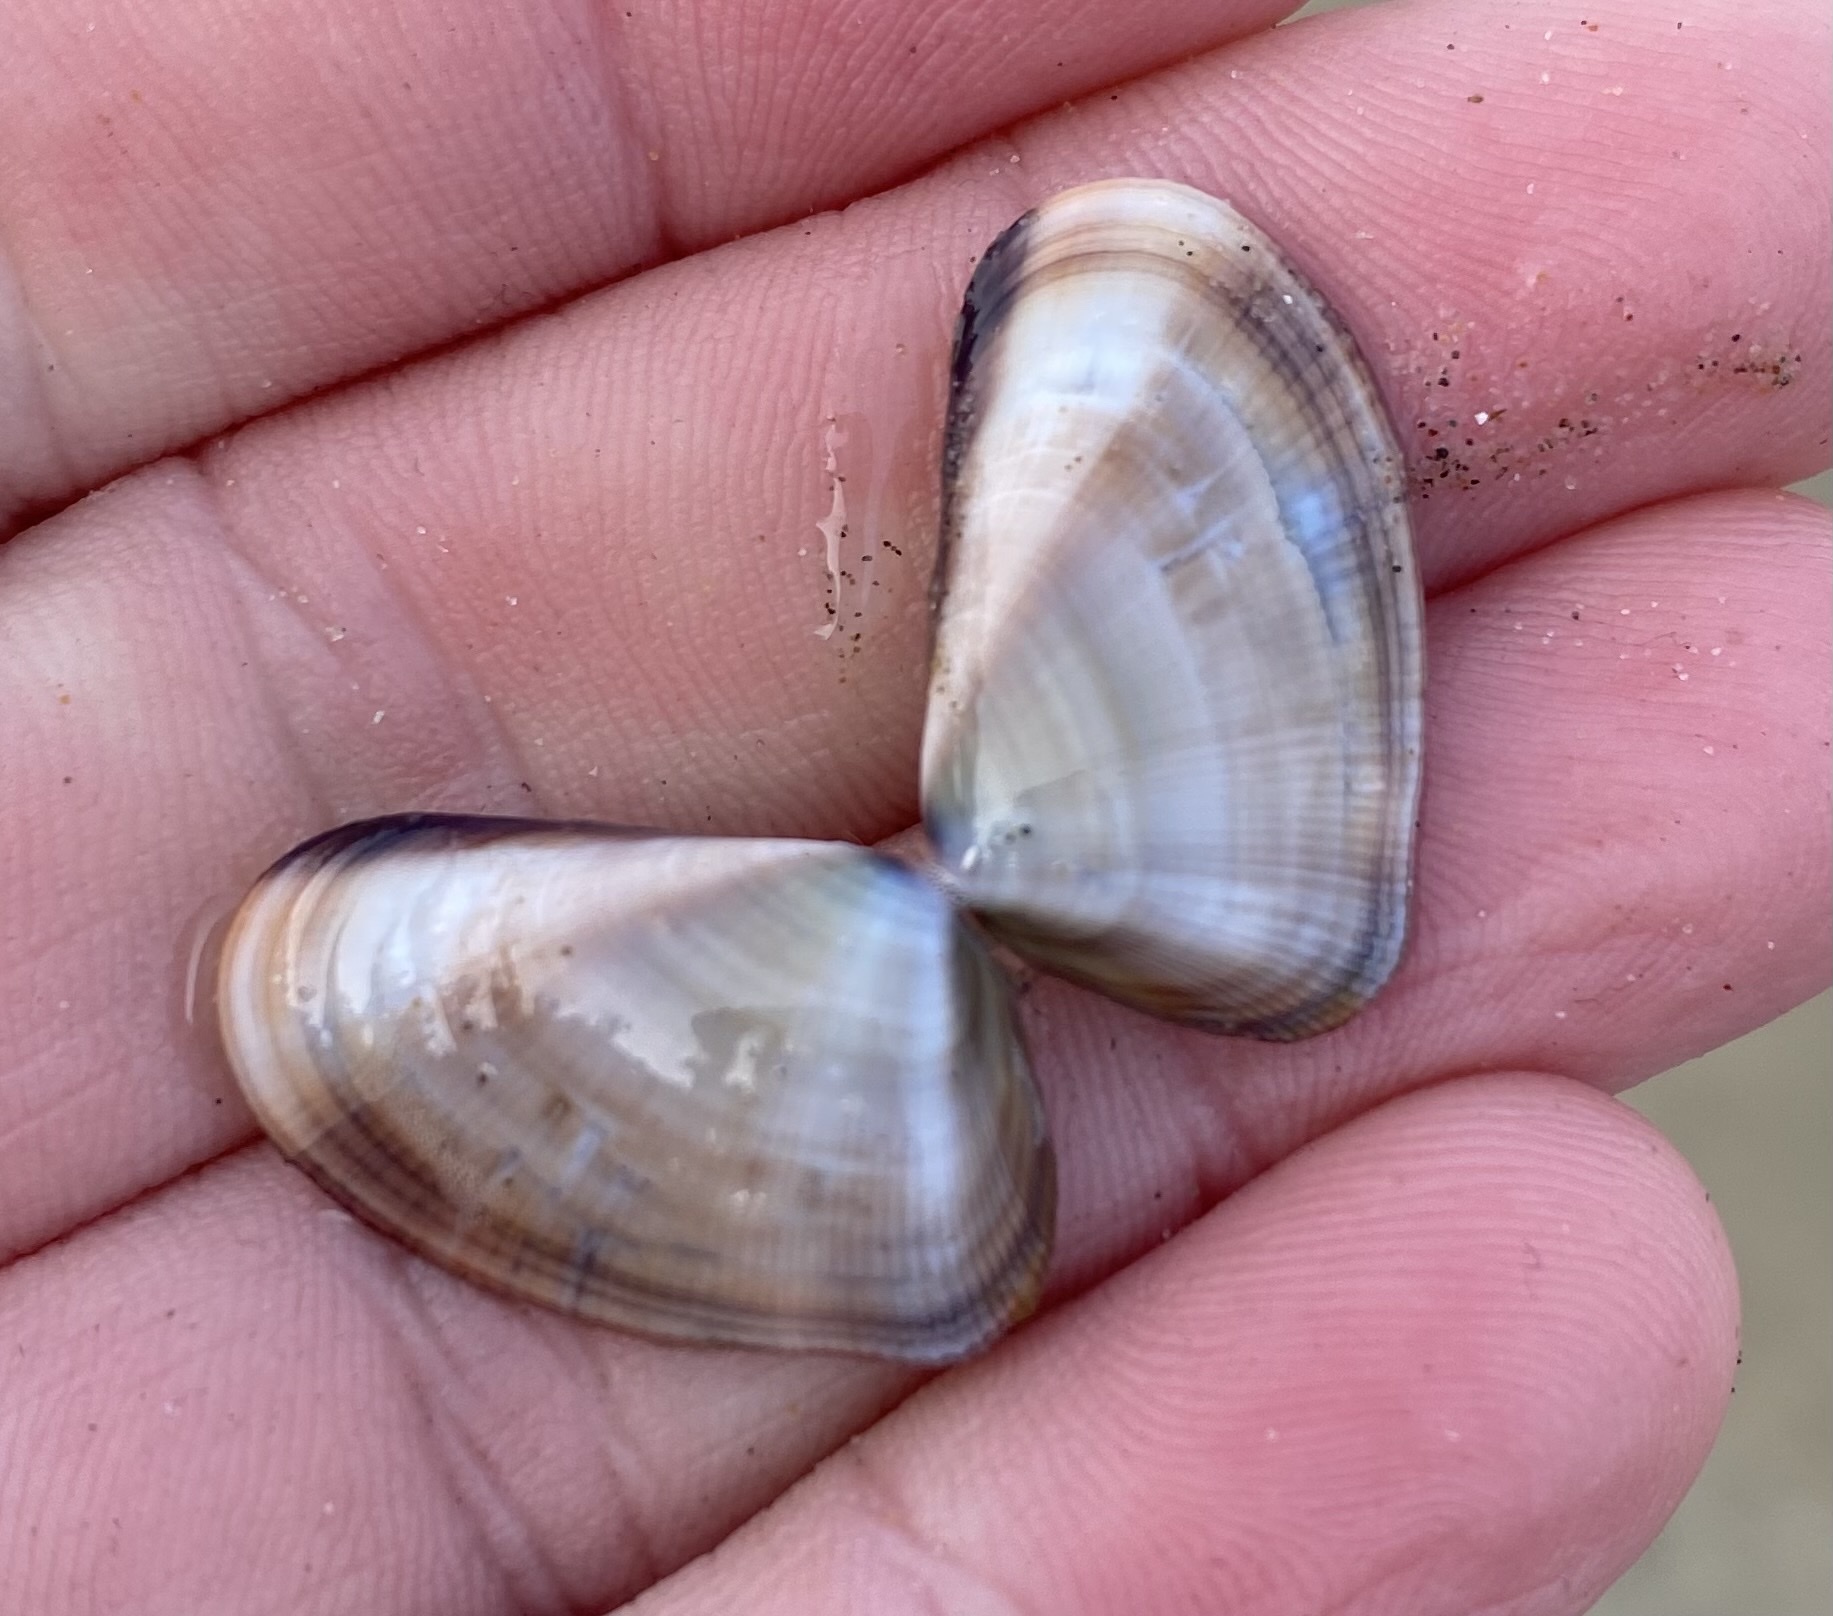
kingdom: Animalia
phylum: Mollusca
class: Bivalvia
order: Cardiida
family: Donacidae
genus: Donax
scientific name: Donax gouldii
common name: Gould beanclam
